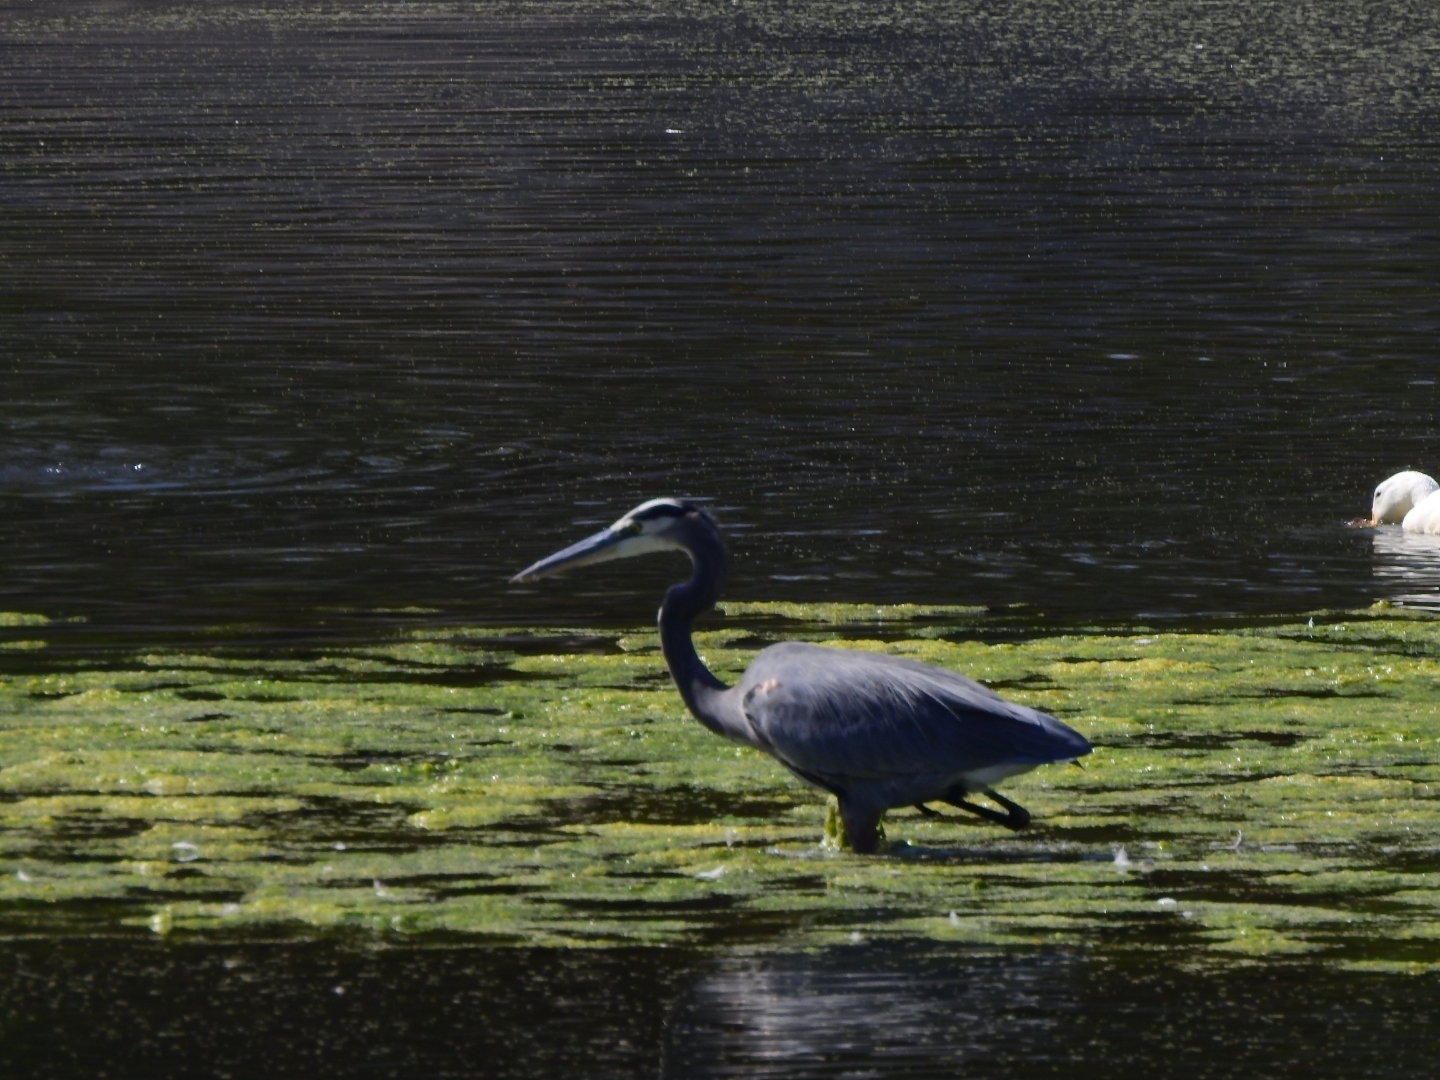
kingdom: Animalia
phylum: Chordata
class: Aves
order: Pelecaniformes
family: Ardeidae
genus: Ardea
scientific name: Ardea herodias
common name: Great blue heron
